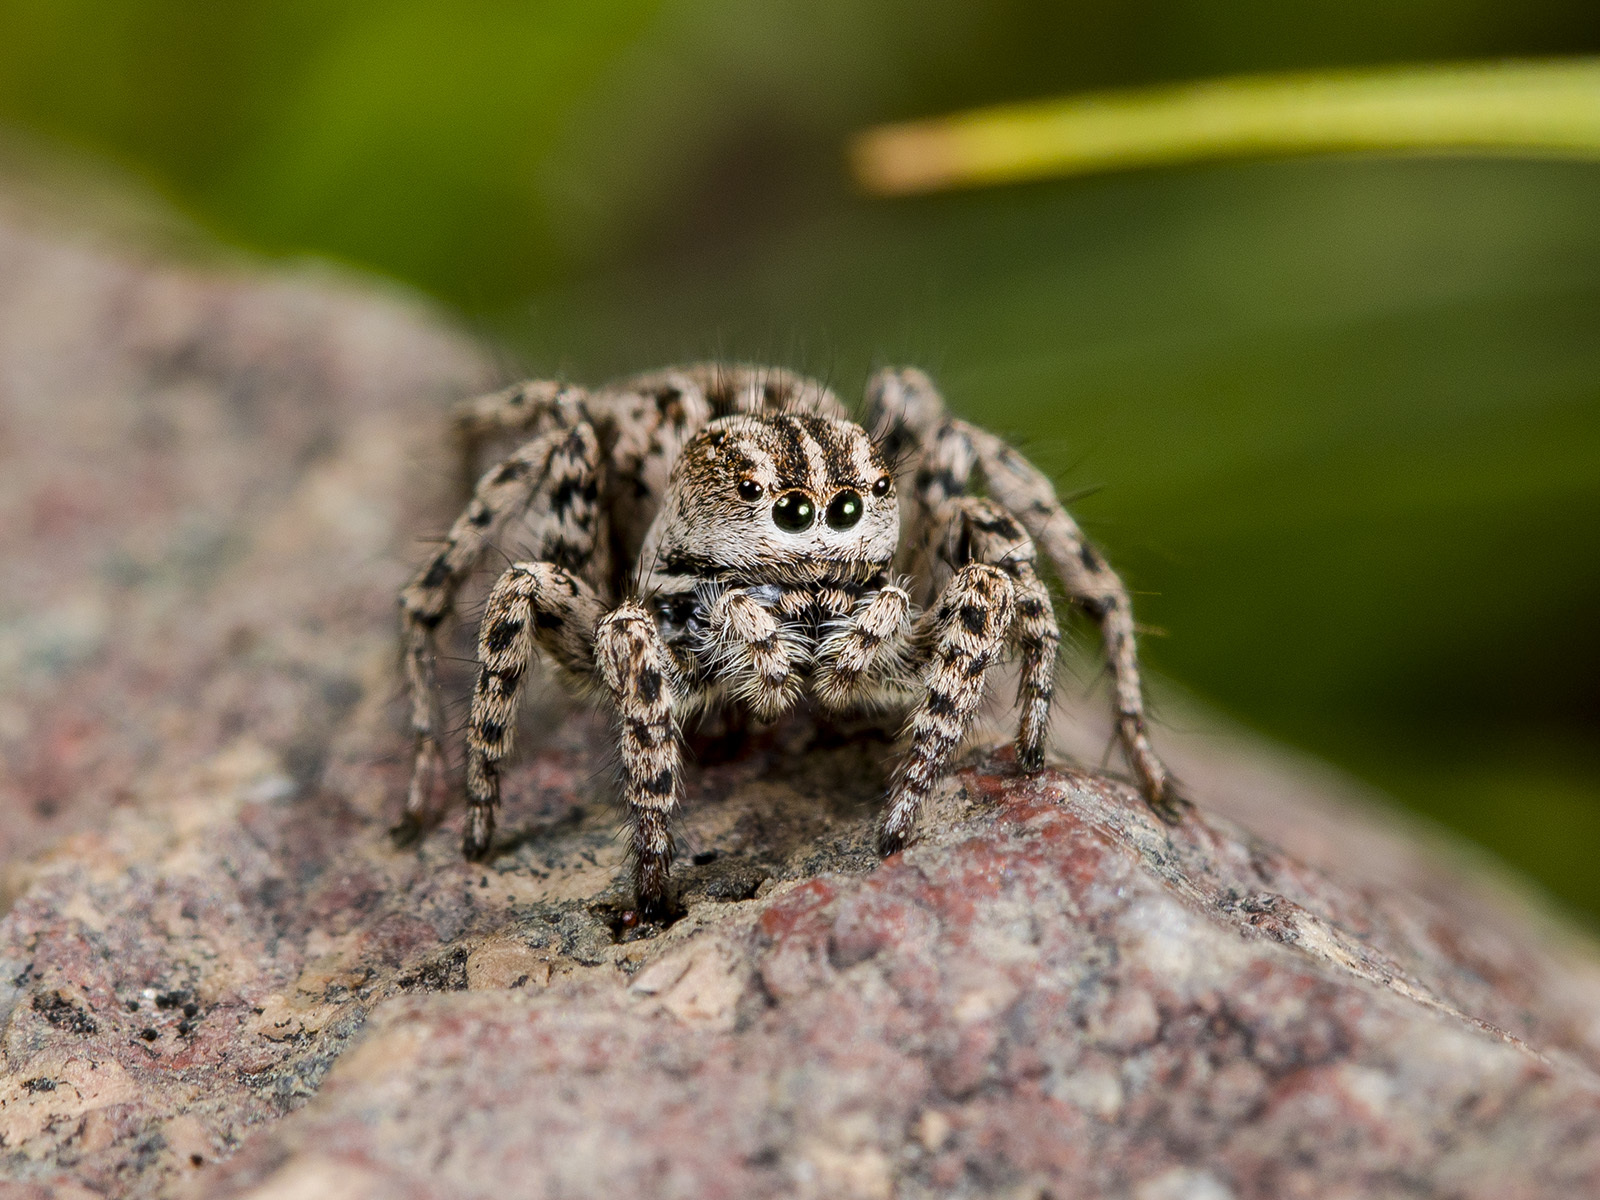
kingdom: Animalia
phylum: Arthropoda
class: Arachnida
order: Araneae
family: Salticidae
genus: Aelurillus
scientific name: Aelurillus m-nigrum
